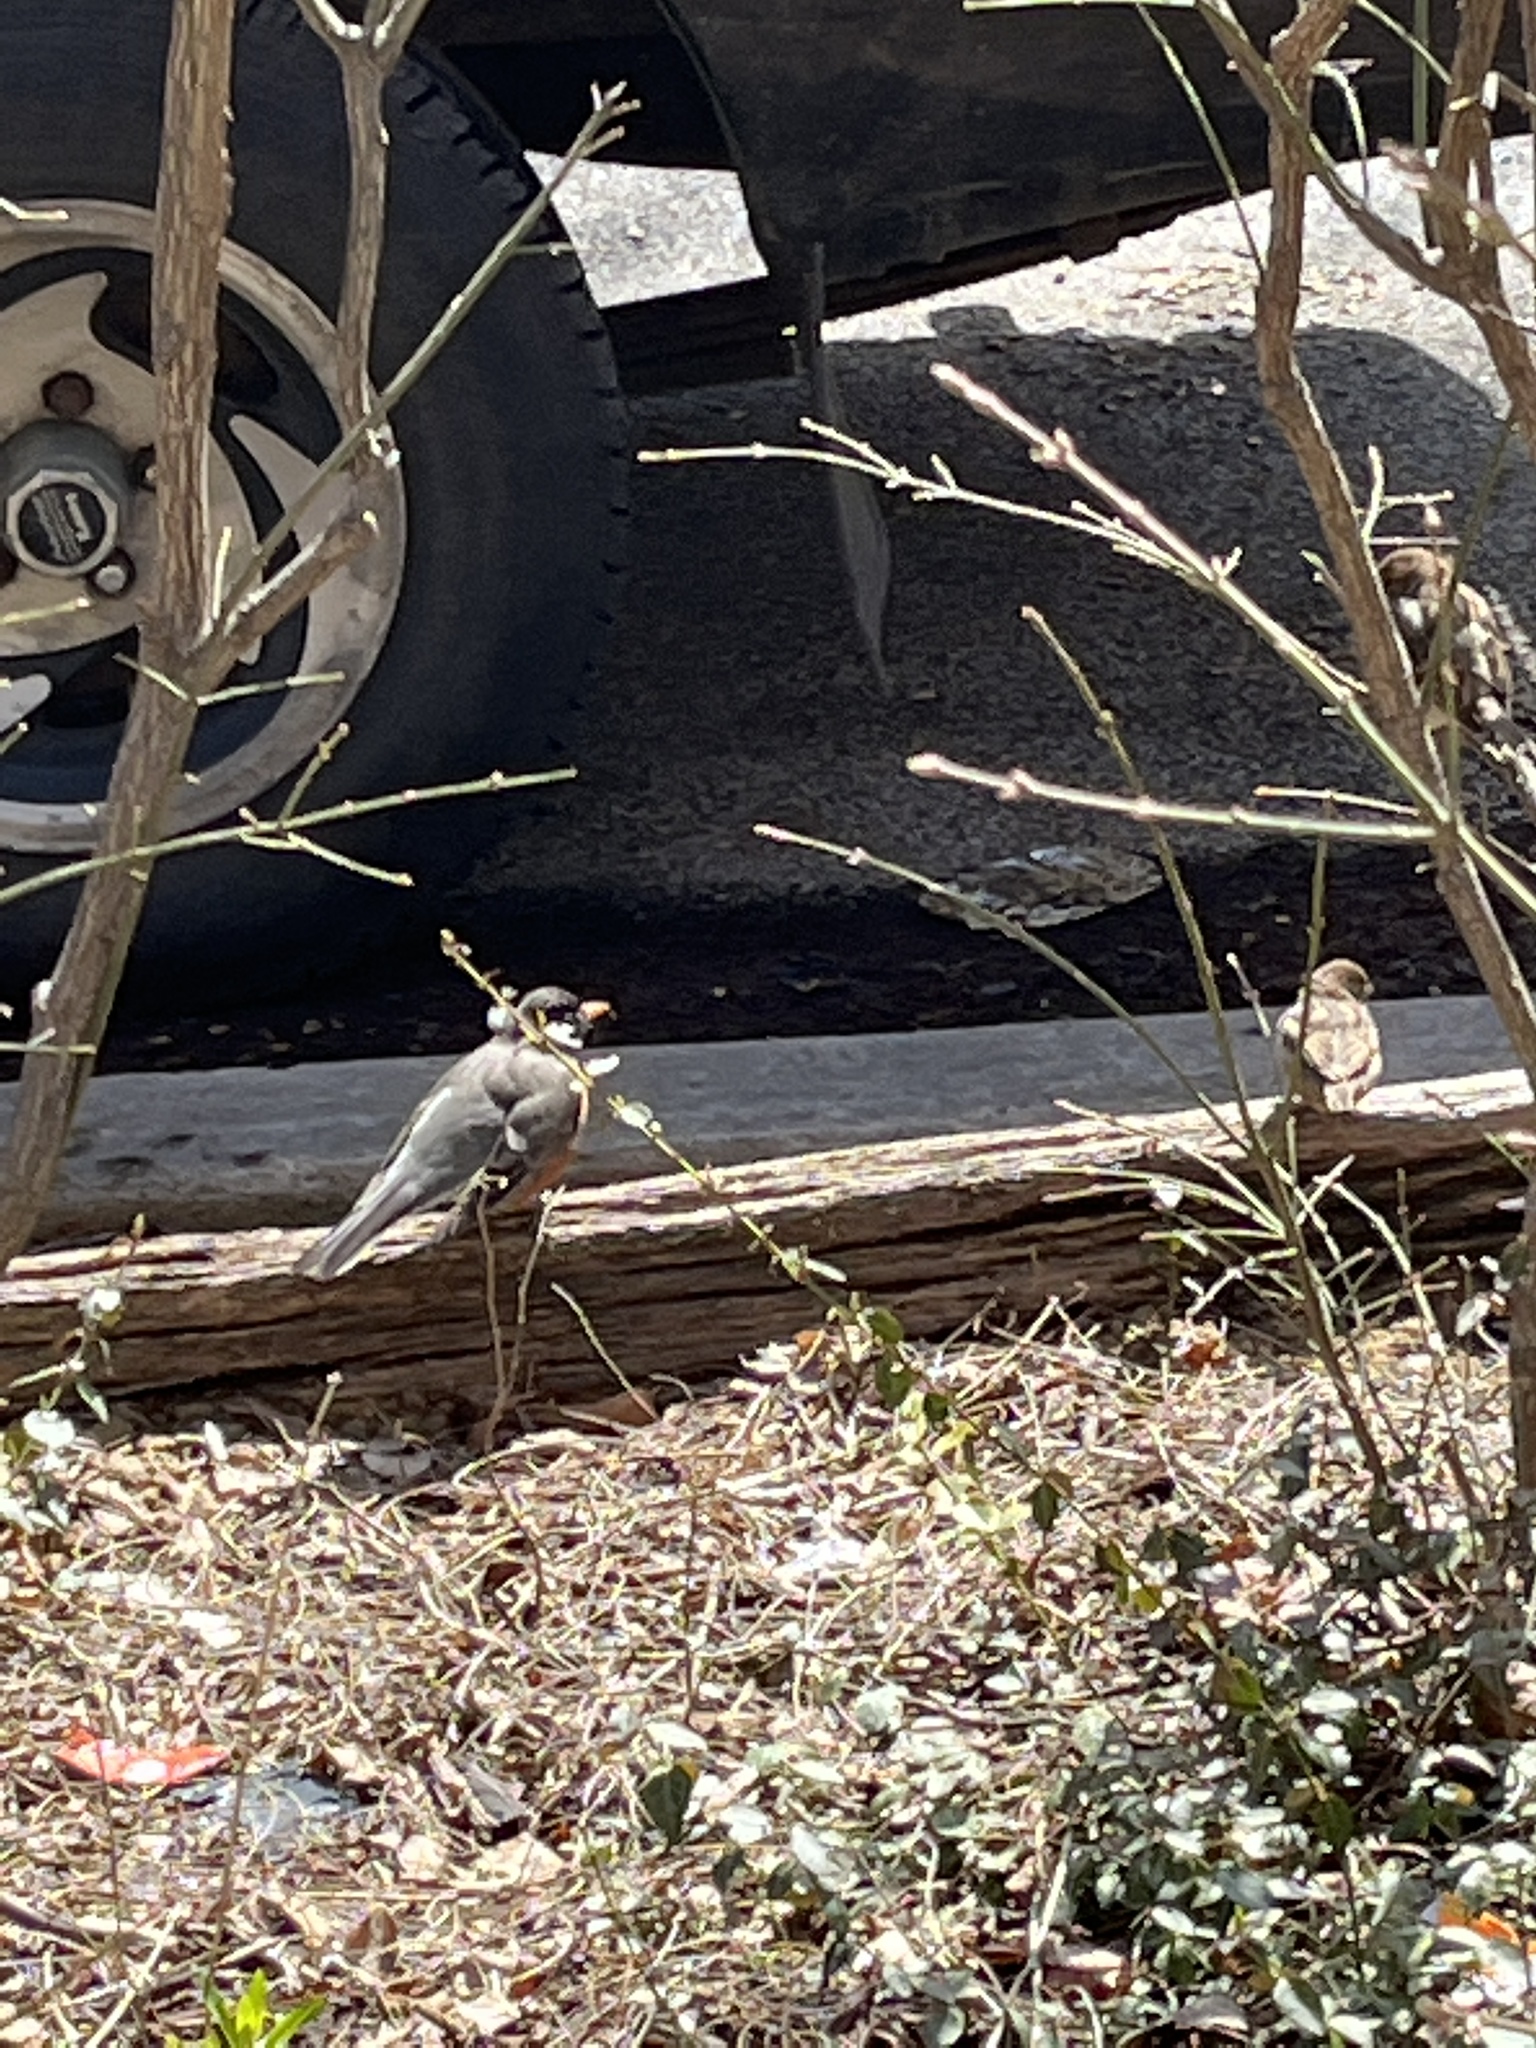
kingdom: Animalia
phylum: Chordata
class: Aves
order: Passeriformes
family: Turdidae
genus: Turdus
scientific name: Turdus migratorius
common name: American robin
